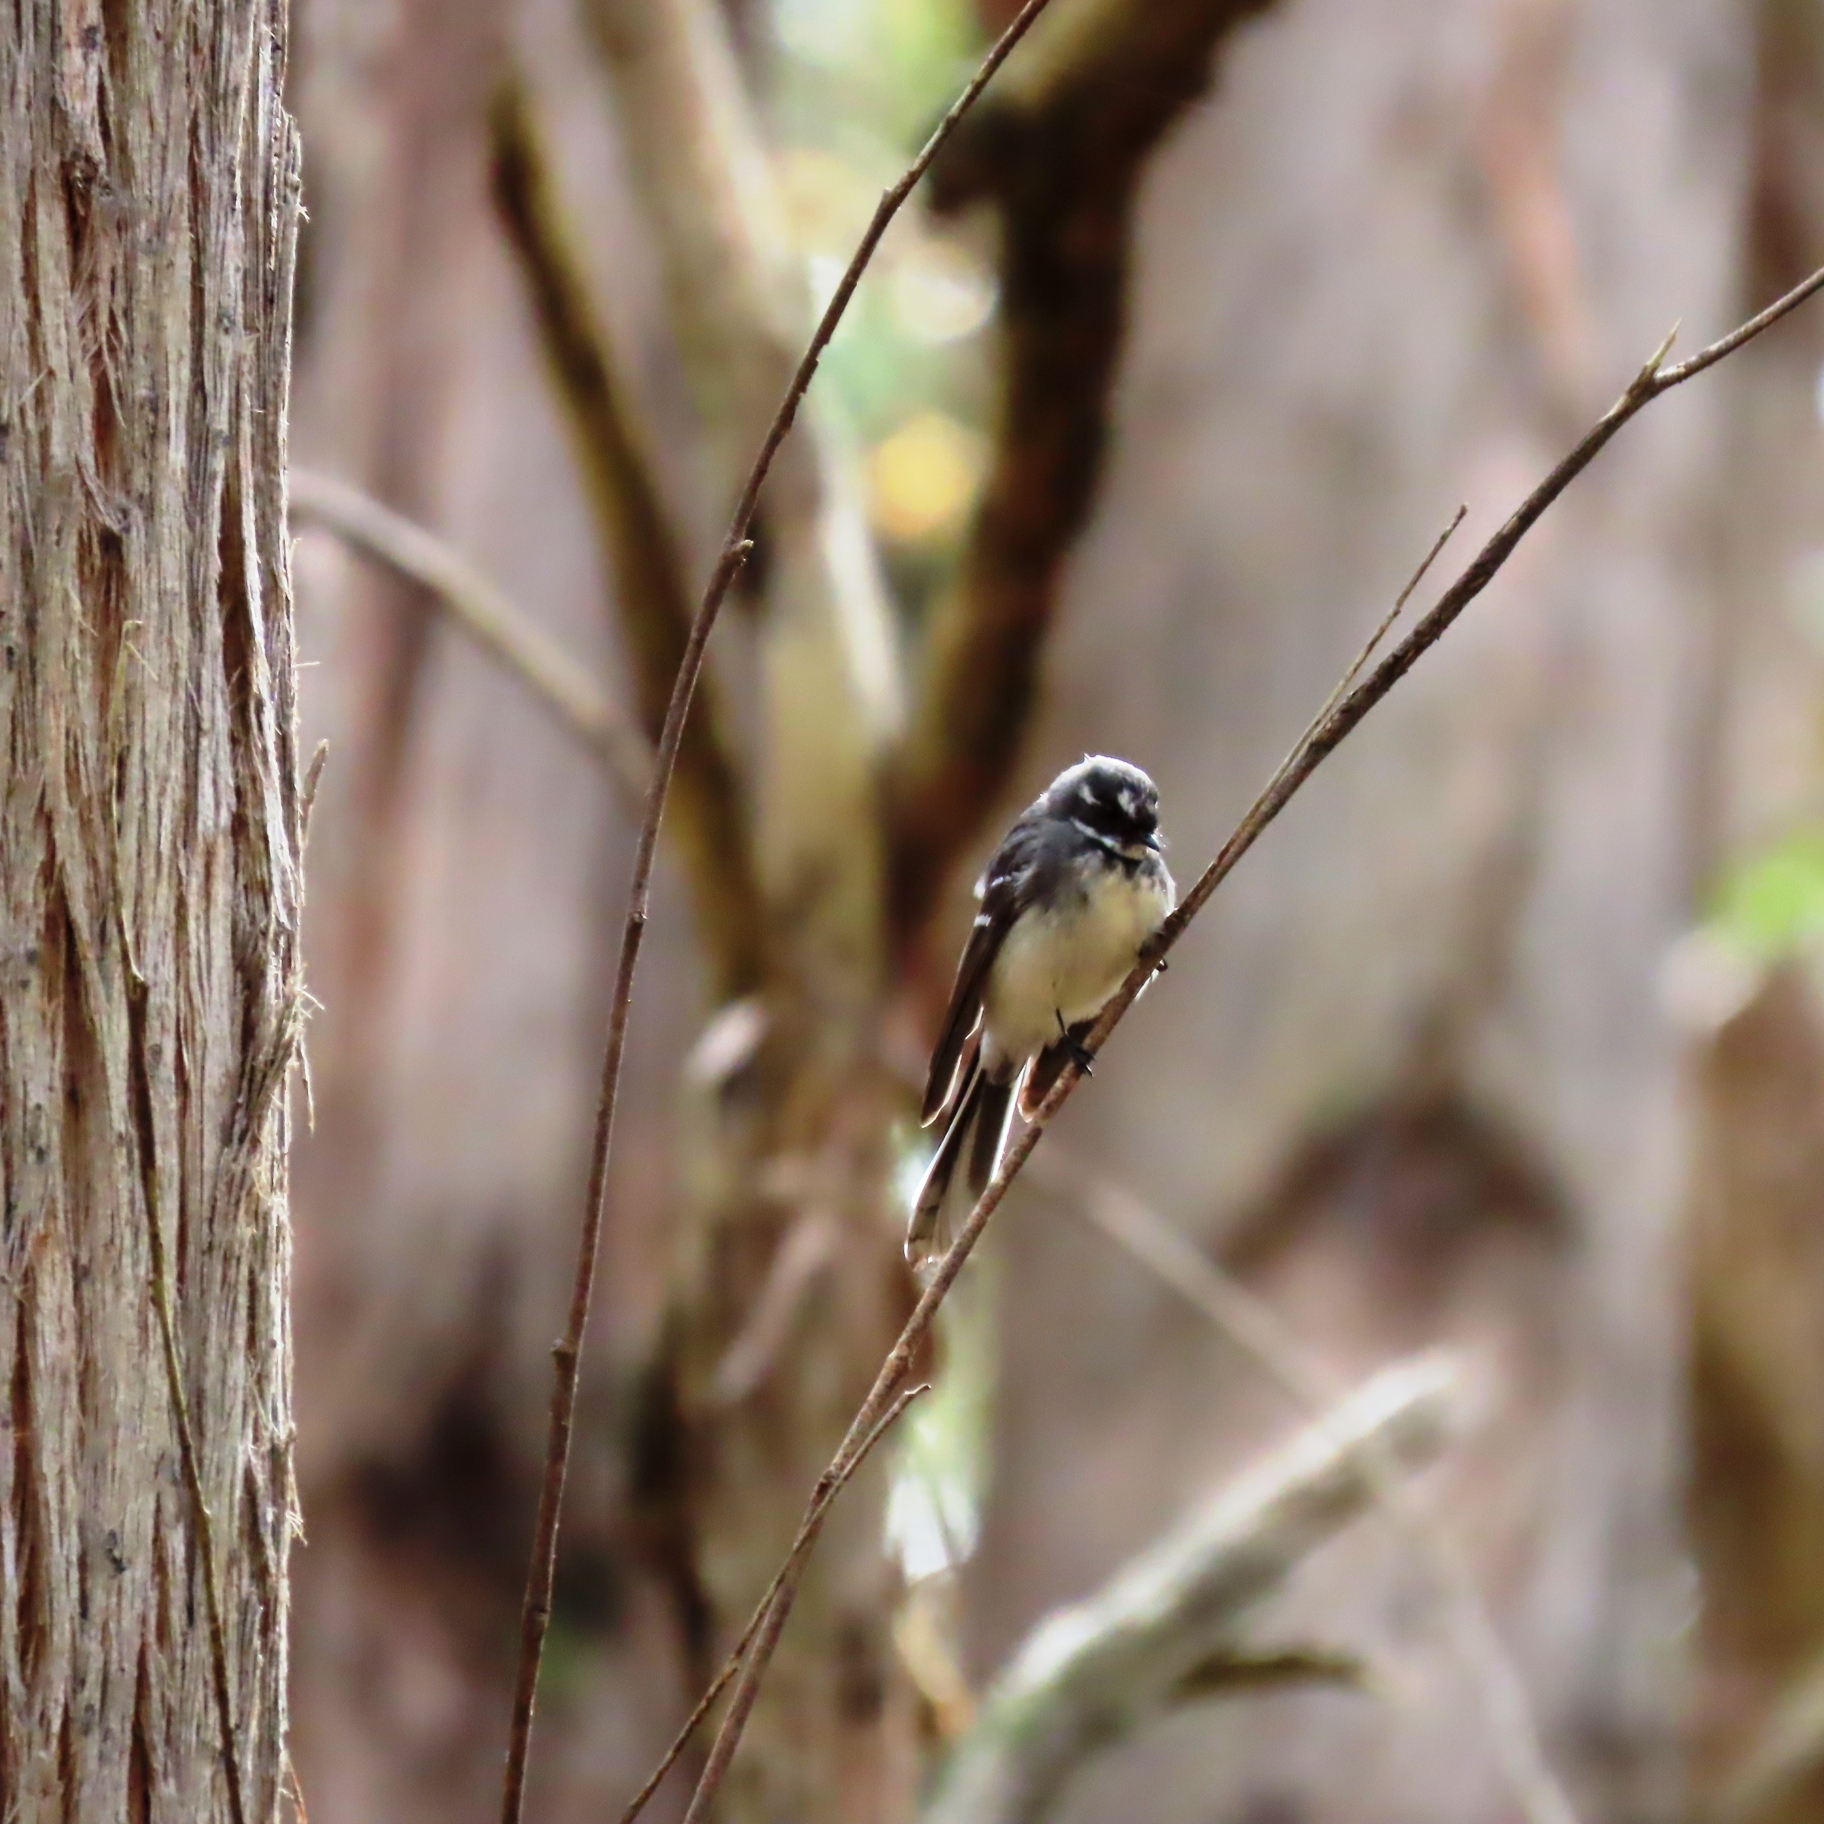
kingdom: Animalia
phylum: Chordata
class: Aves
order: Passeriformes
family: Rhipiduridae
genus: Rhipidura
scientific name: Rhipidura albiscapa
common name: Grey fantail
